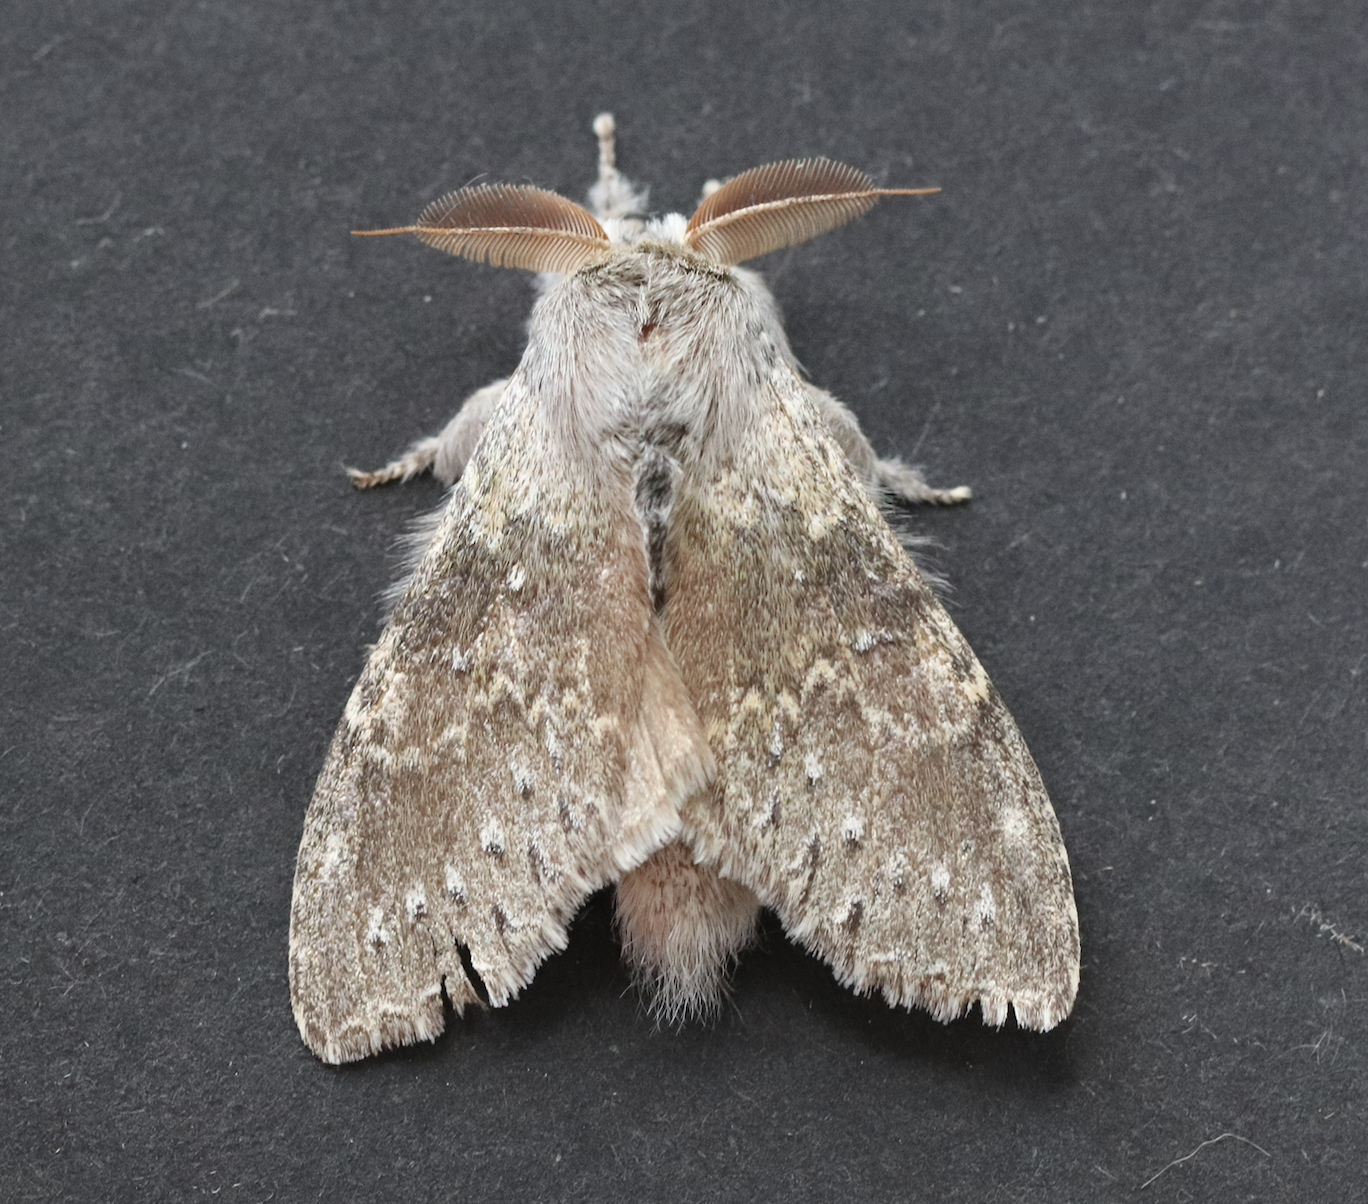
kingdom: Animalia
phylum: Arthropoda
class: Insecta
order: Lepidoptera
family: Notodontidae
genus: Stauropus
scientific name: Stauropus fagi
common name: Lobster moth
